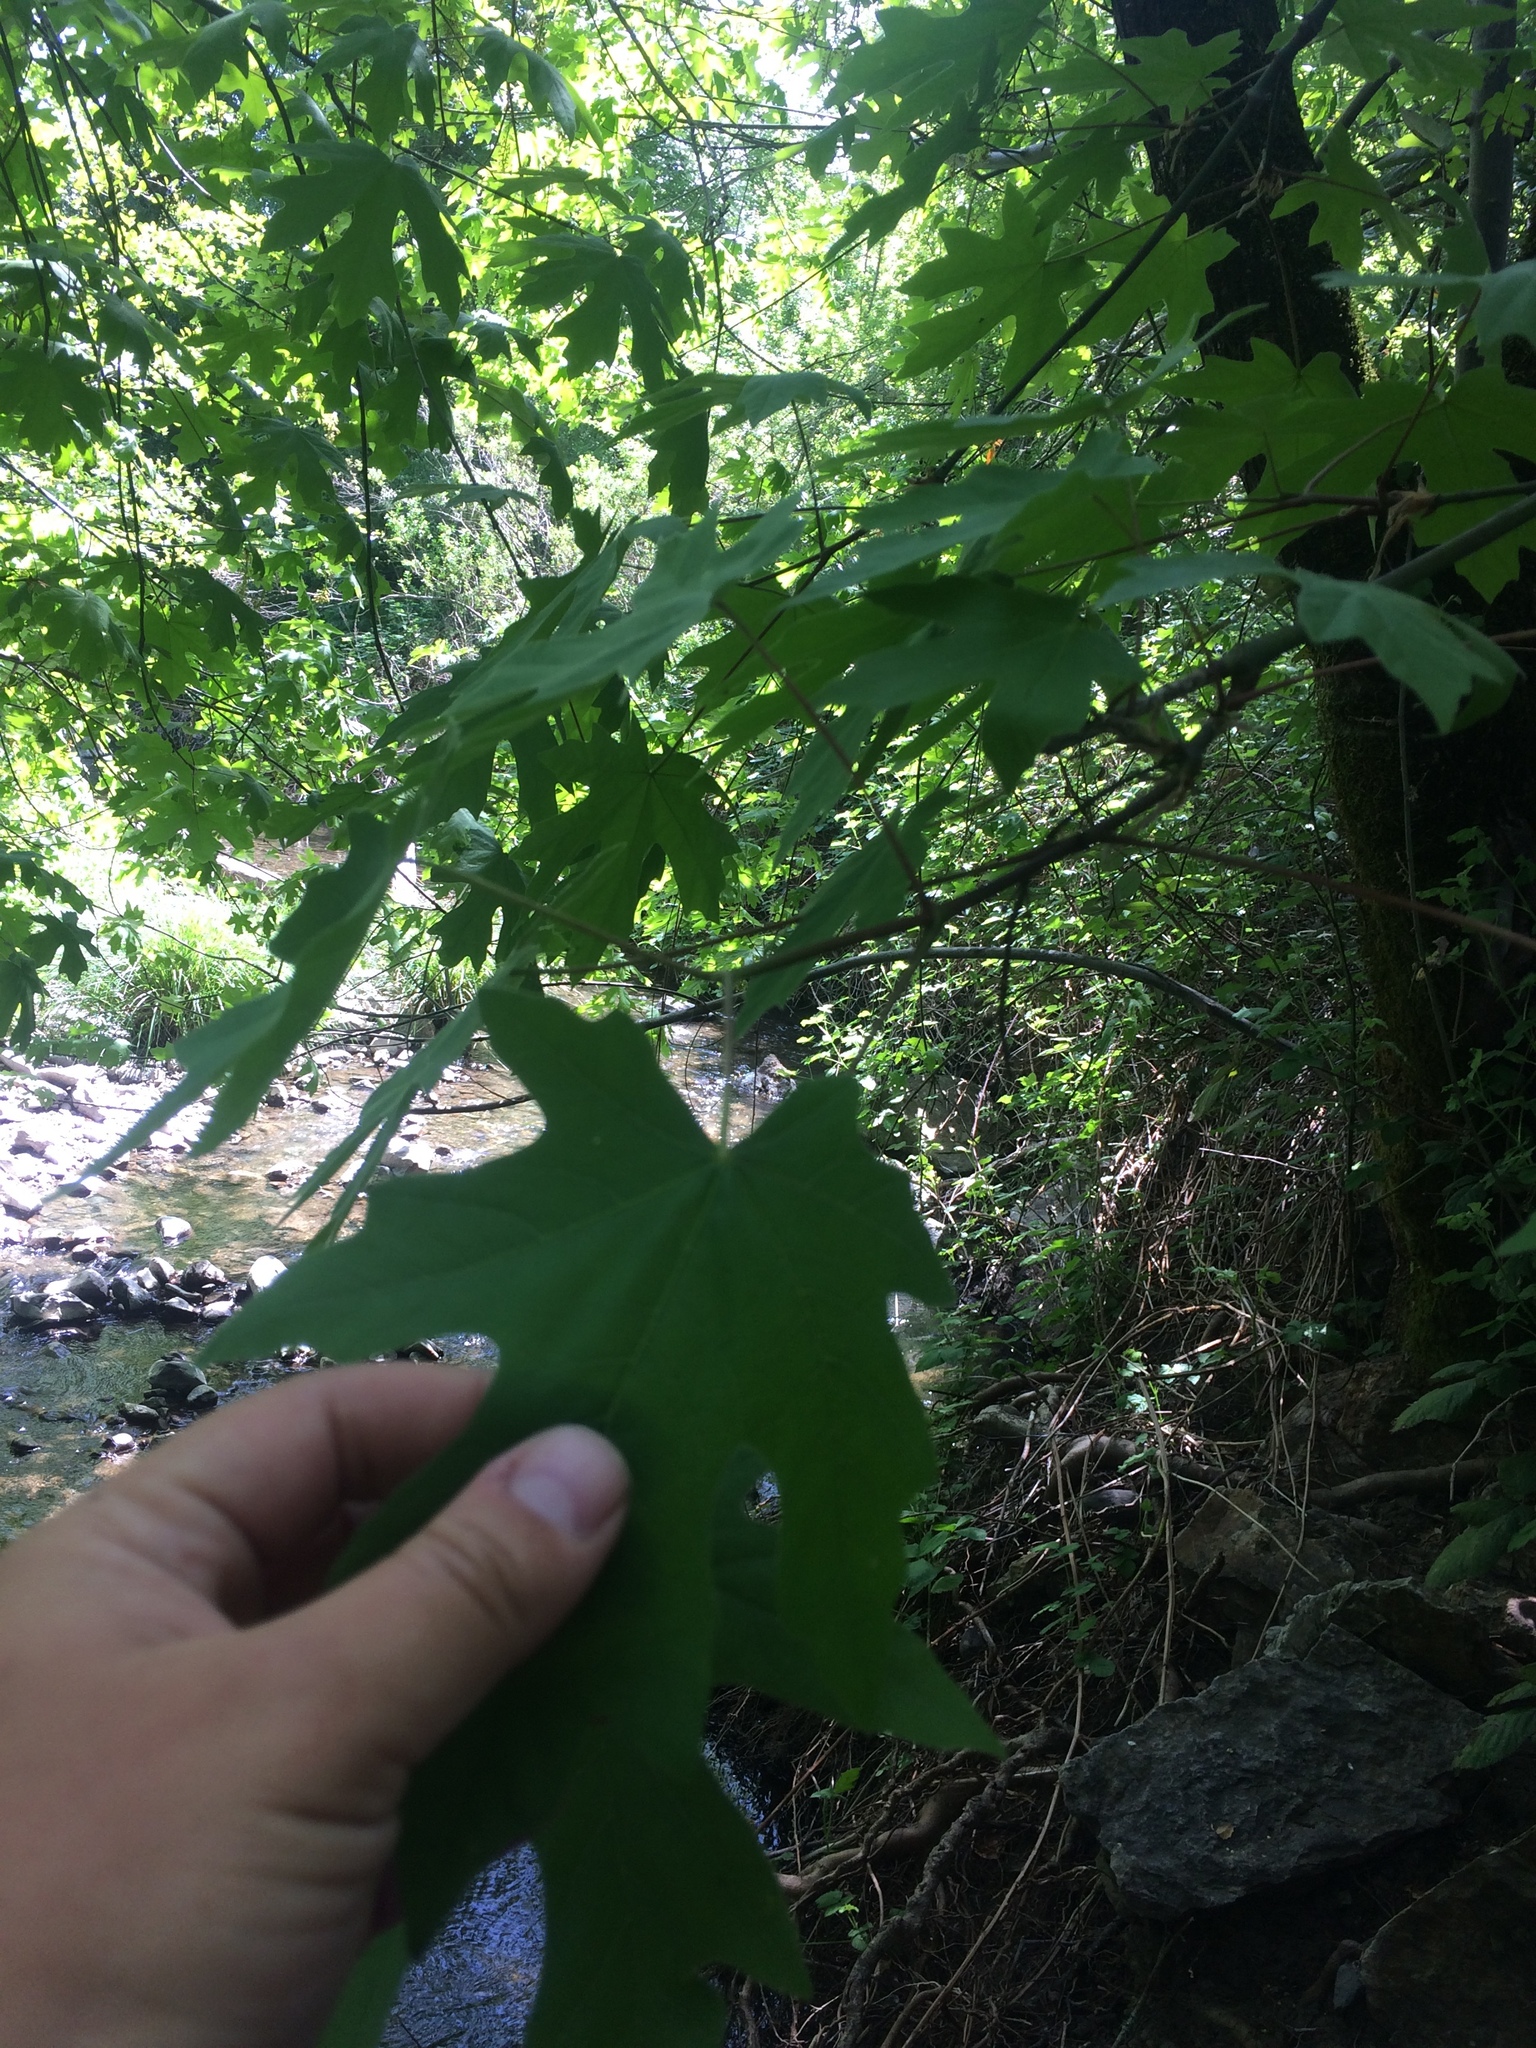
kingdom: Plantae
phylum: Tracheophyta
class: Magnoliopsida
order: Sapindales
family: Sapindaceae
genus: Acer
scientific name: Acer macrophyllum
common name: Oregon maple
